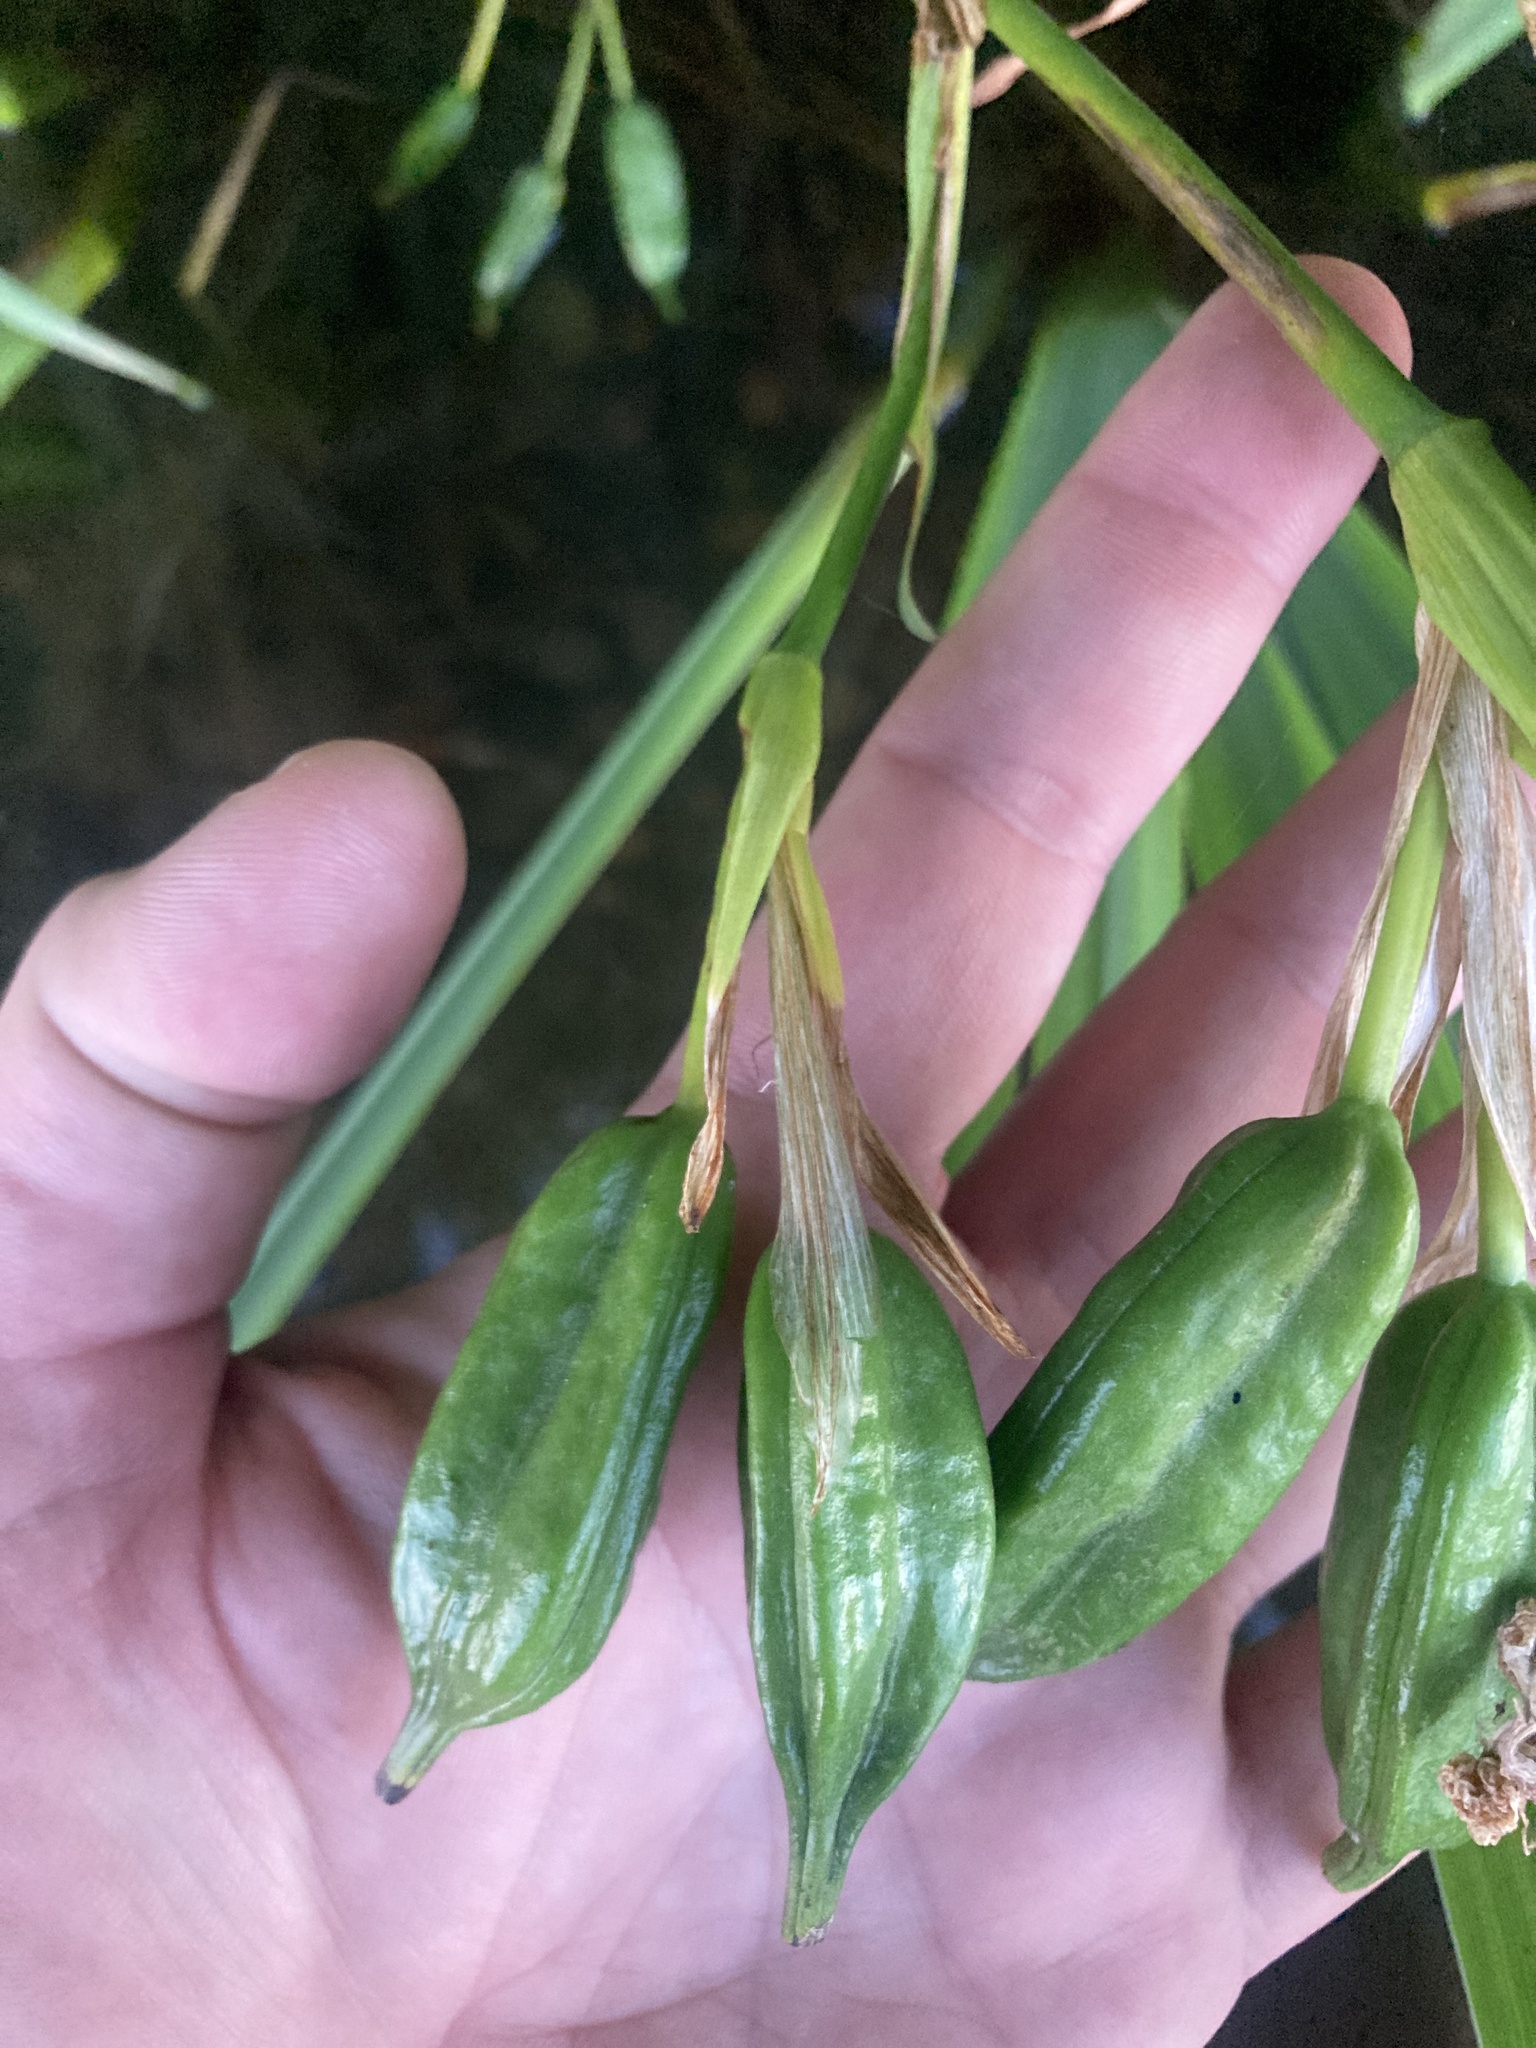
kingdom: Plantae
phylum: Tracheophyta
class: Liliopsida
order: Asparagales
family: Iridaceae
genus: Iris
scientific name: Iris pseudacorus
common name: Yellow flag
